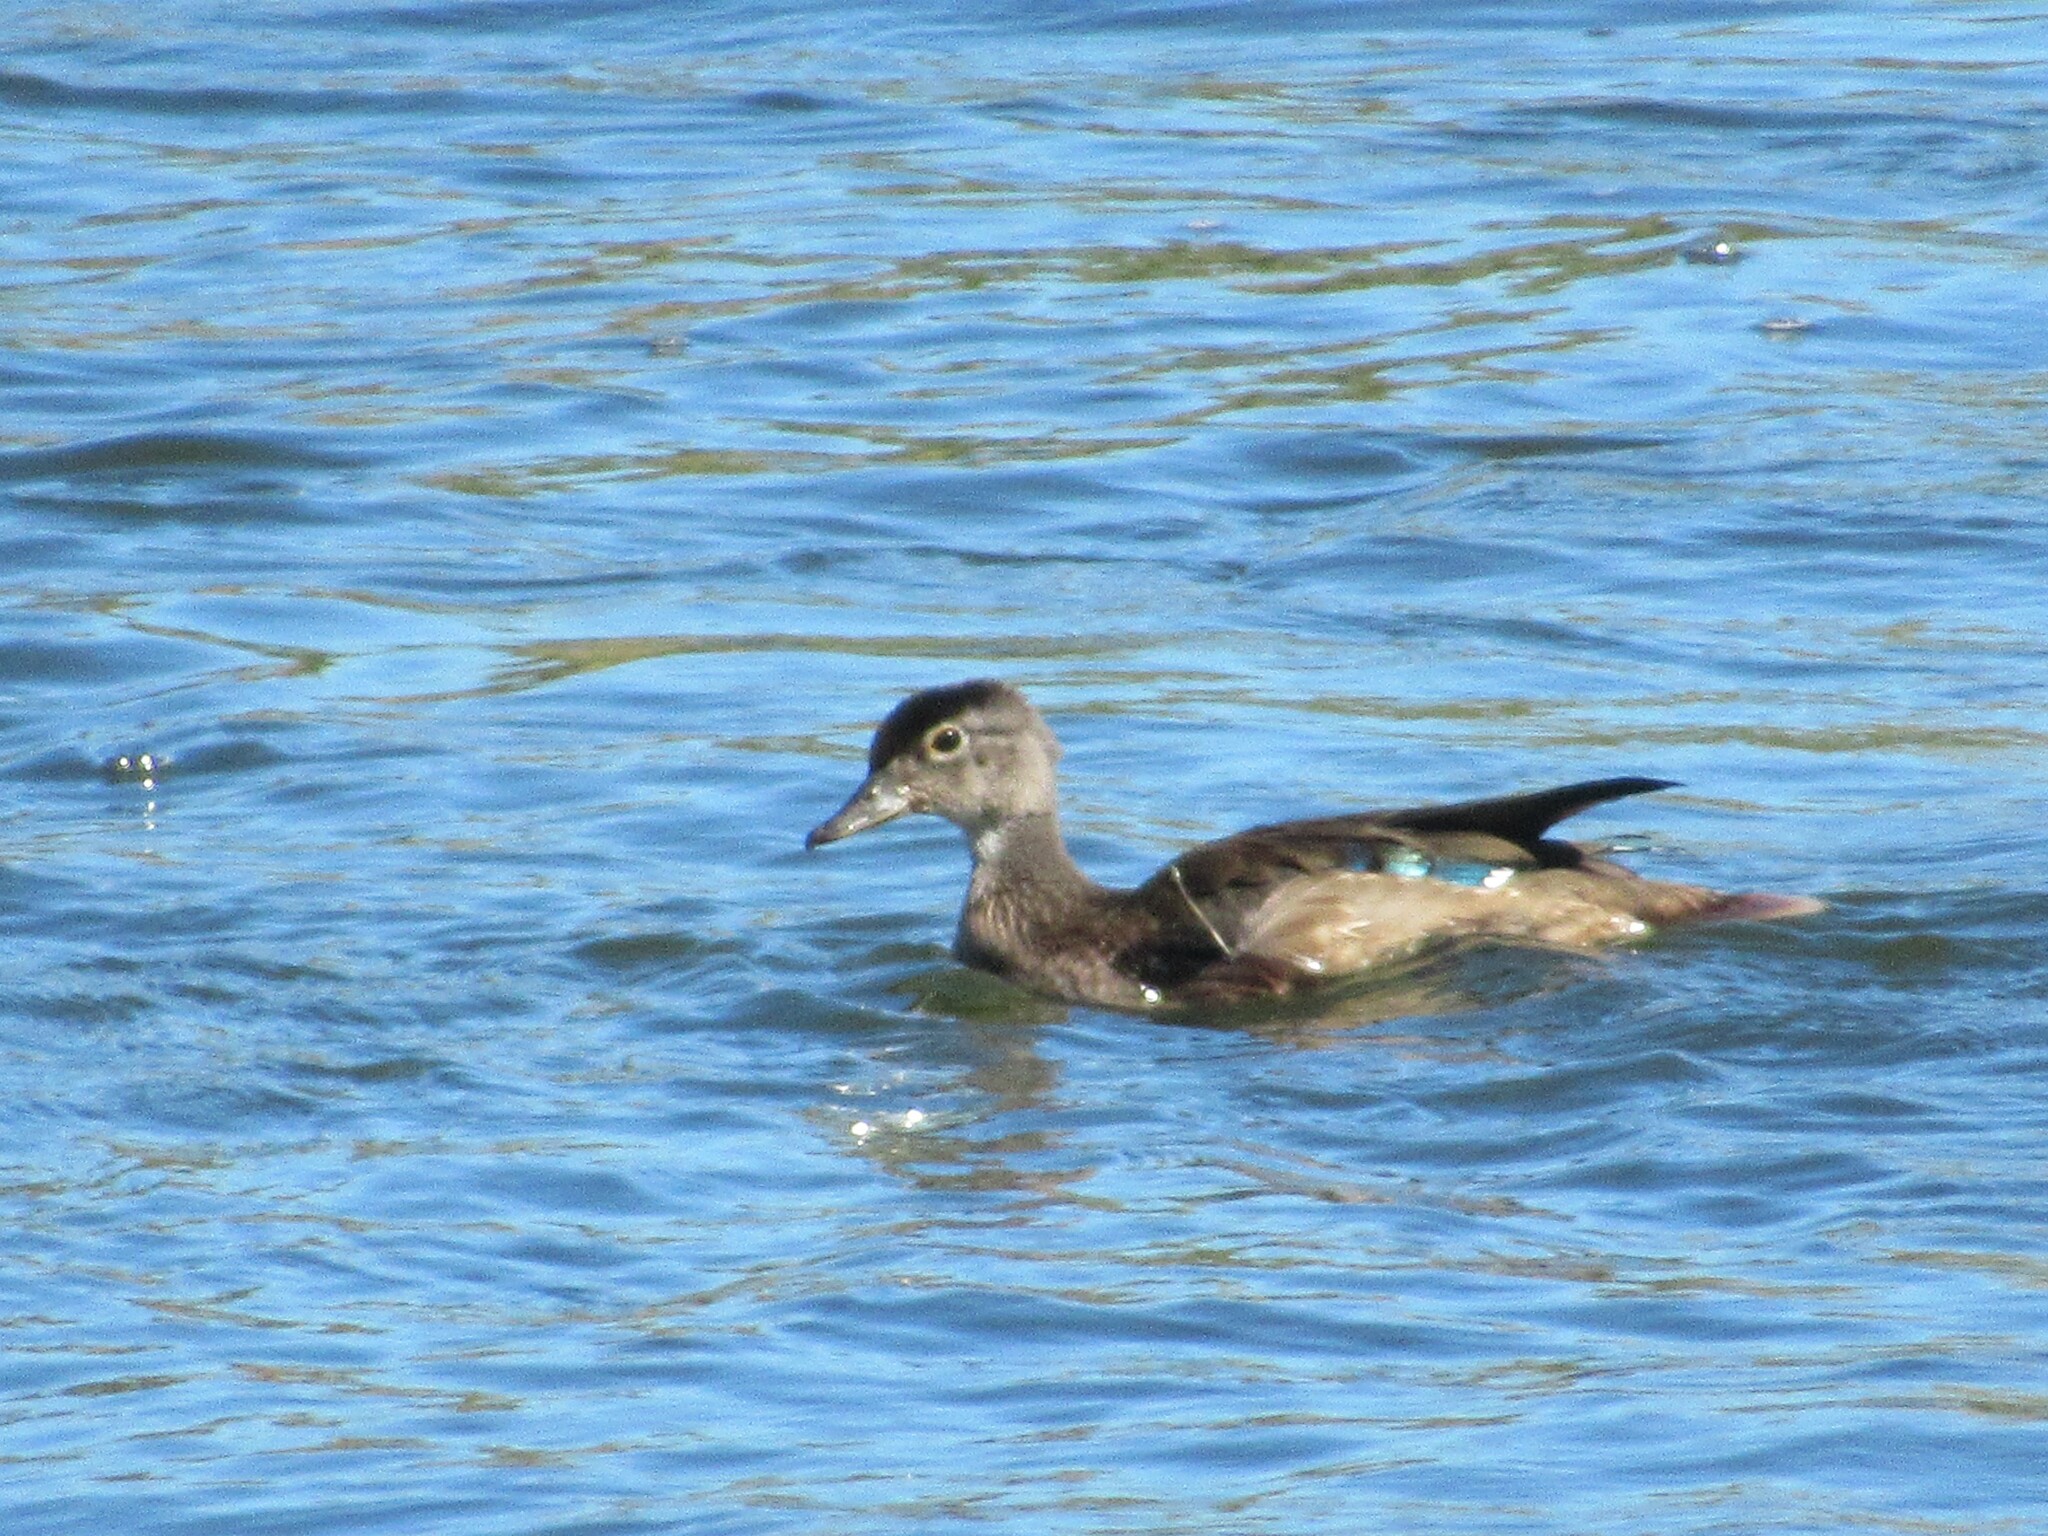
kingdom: Animalia
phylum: Chordata
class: Aves
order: Anseriformes
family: Anatidae
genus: Aix
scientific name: Aix sponsa
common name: Wood duck
